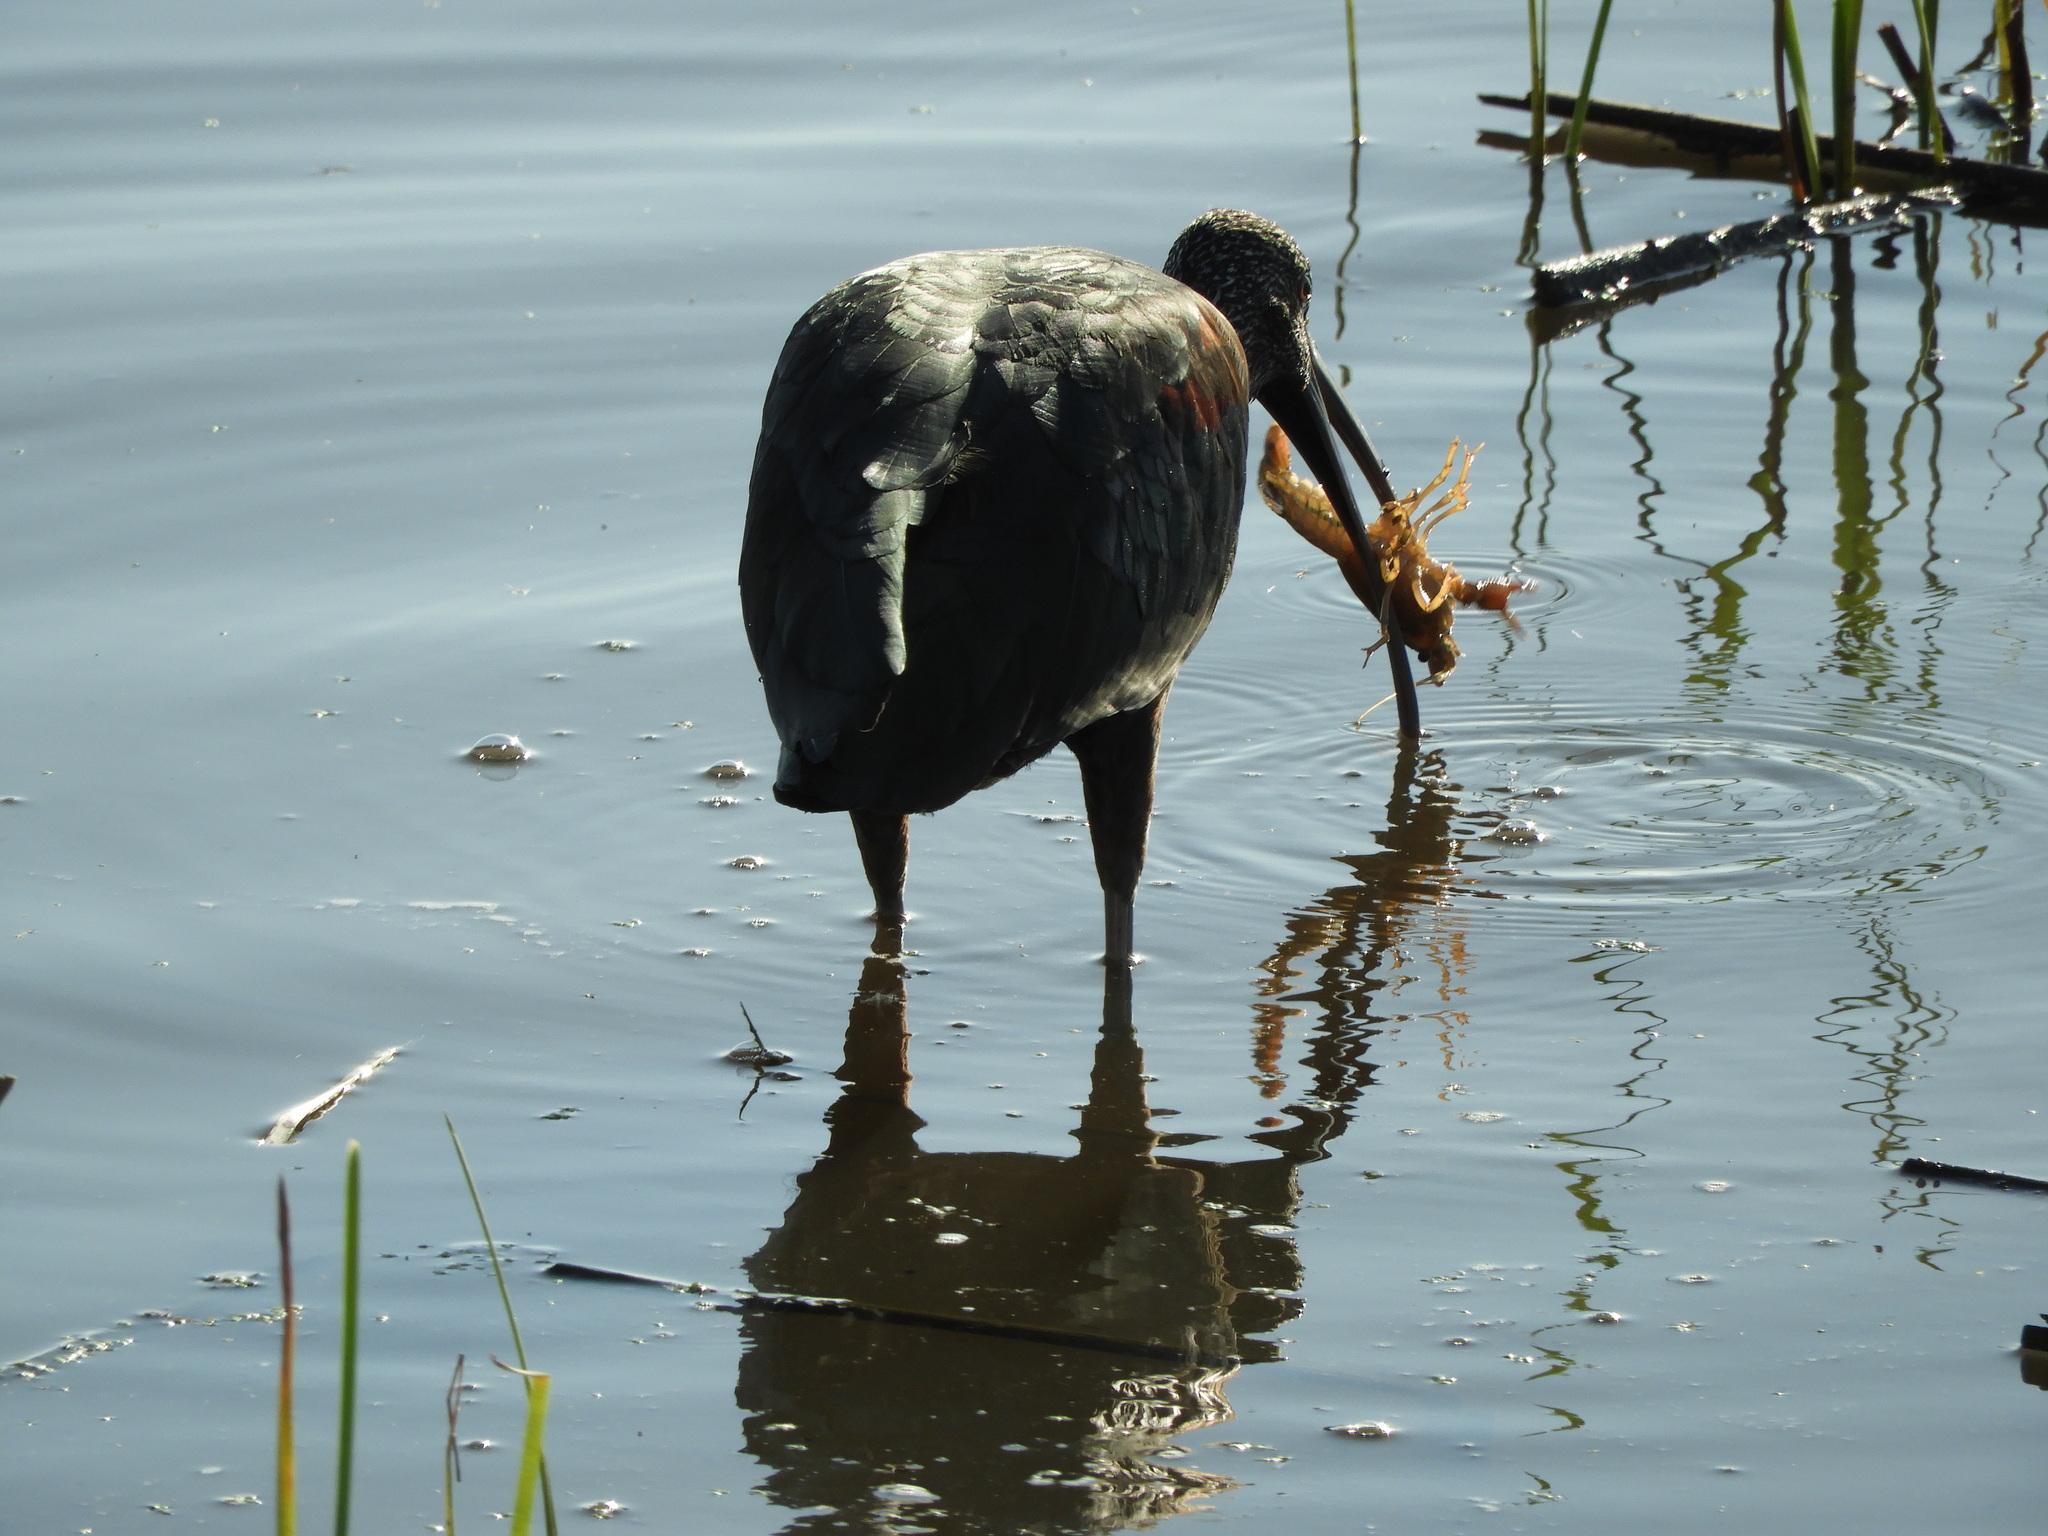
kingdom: Animalia
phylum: Chordata
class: Aves
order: Pelecaniformes
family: Threskiornithidae
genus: Plegadis
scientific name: Plegadis falcinellus
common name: Glossy ibis
